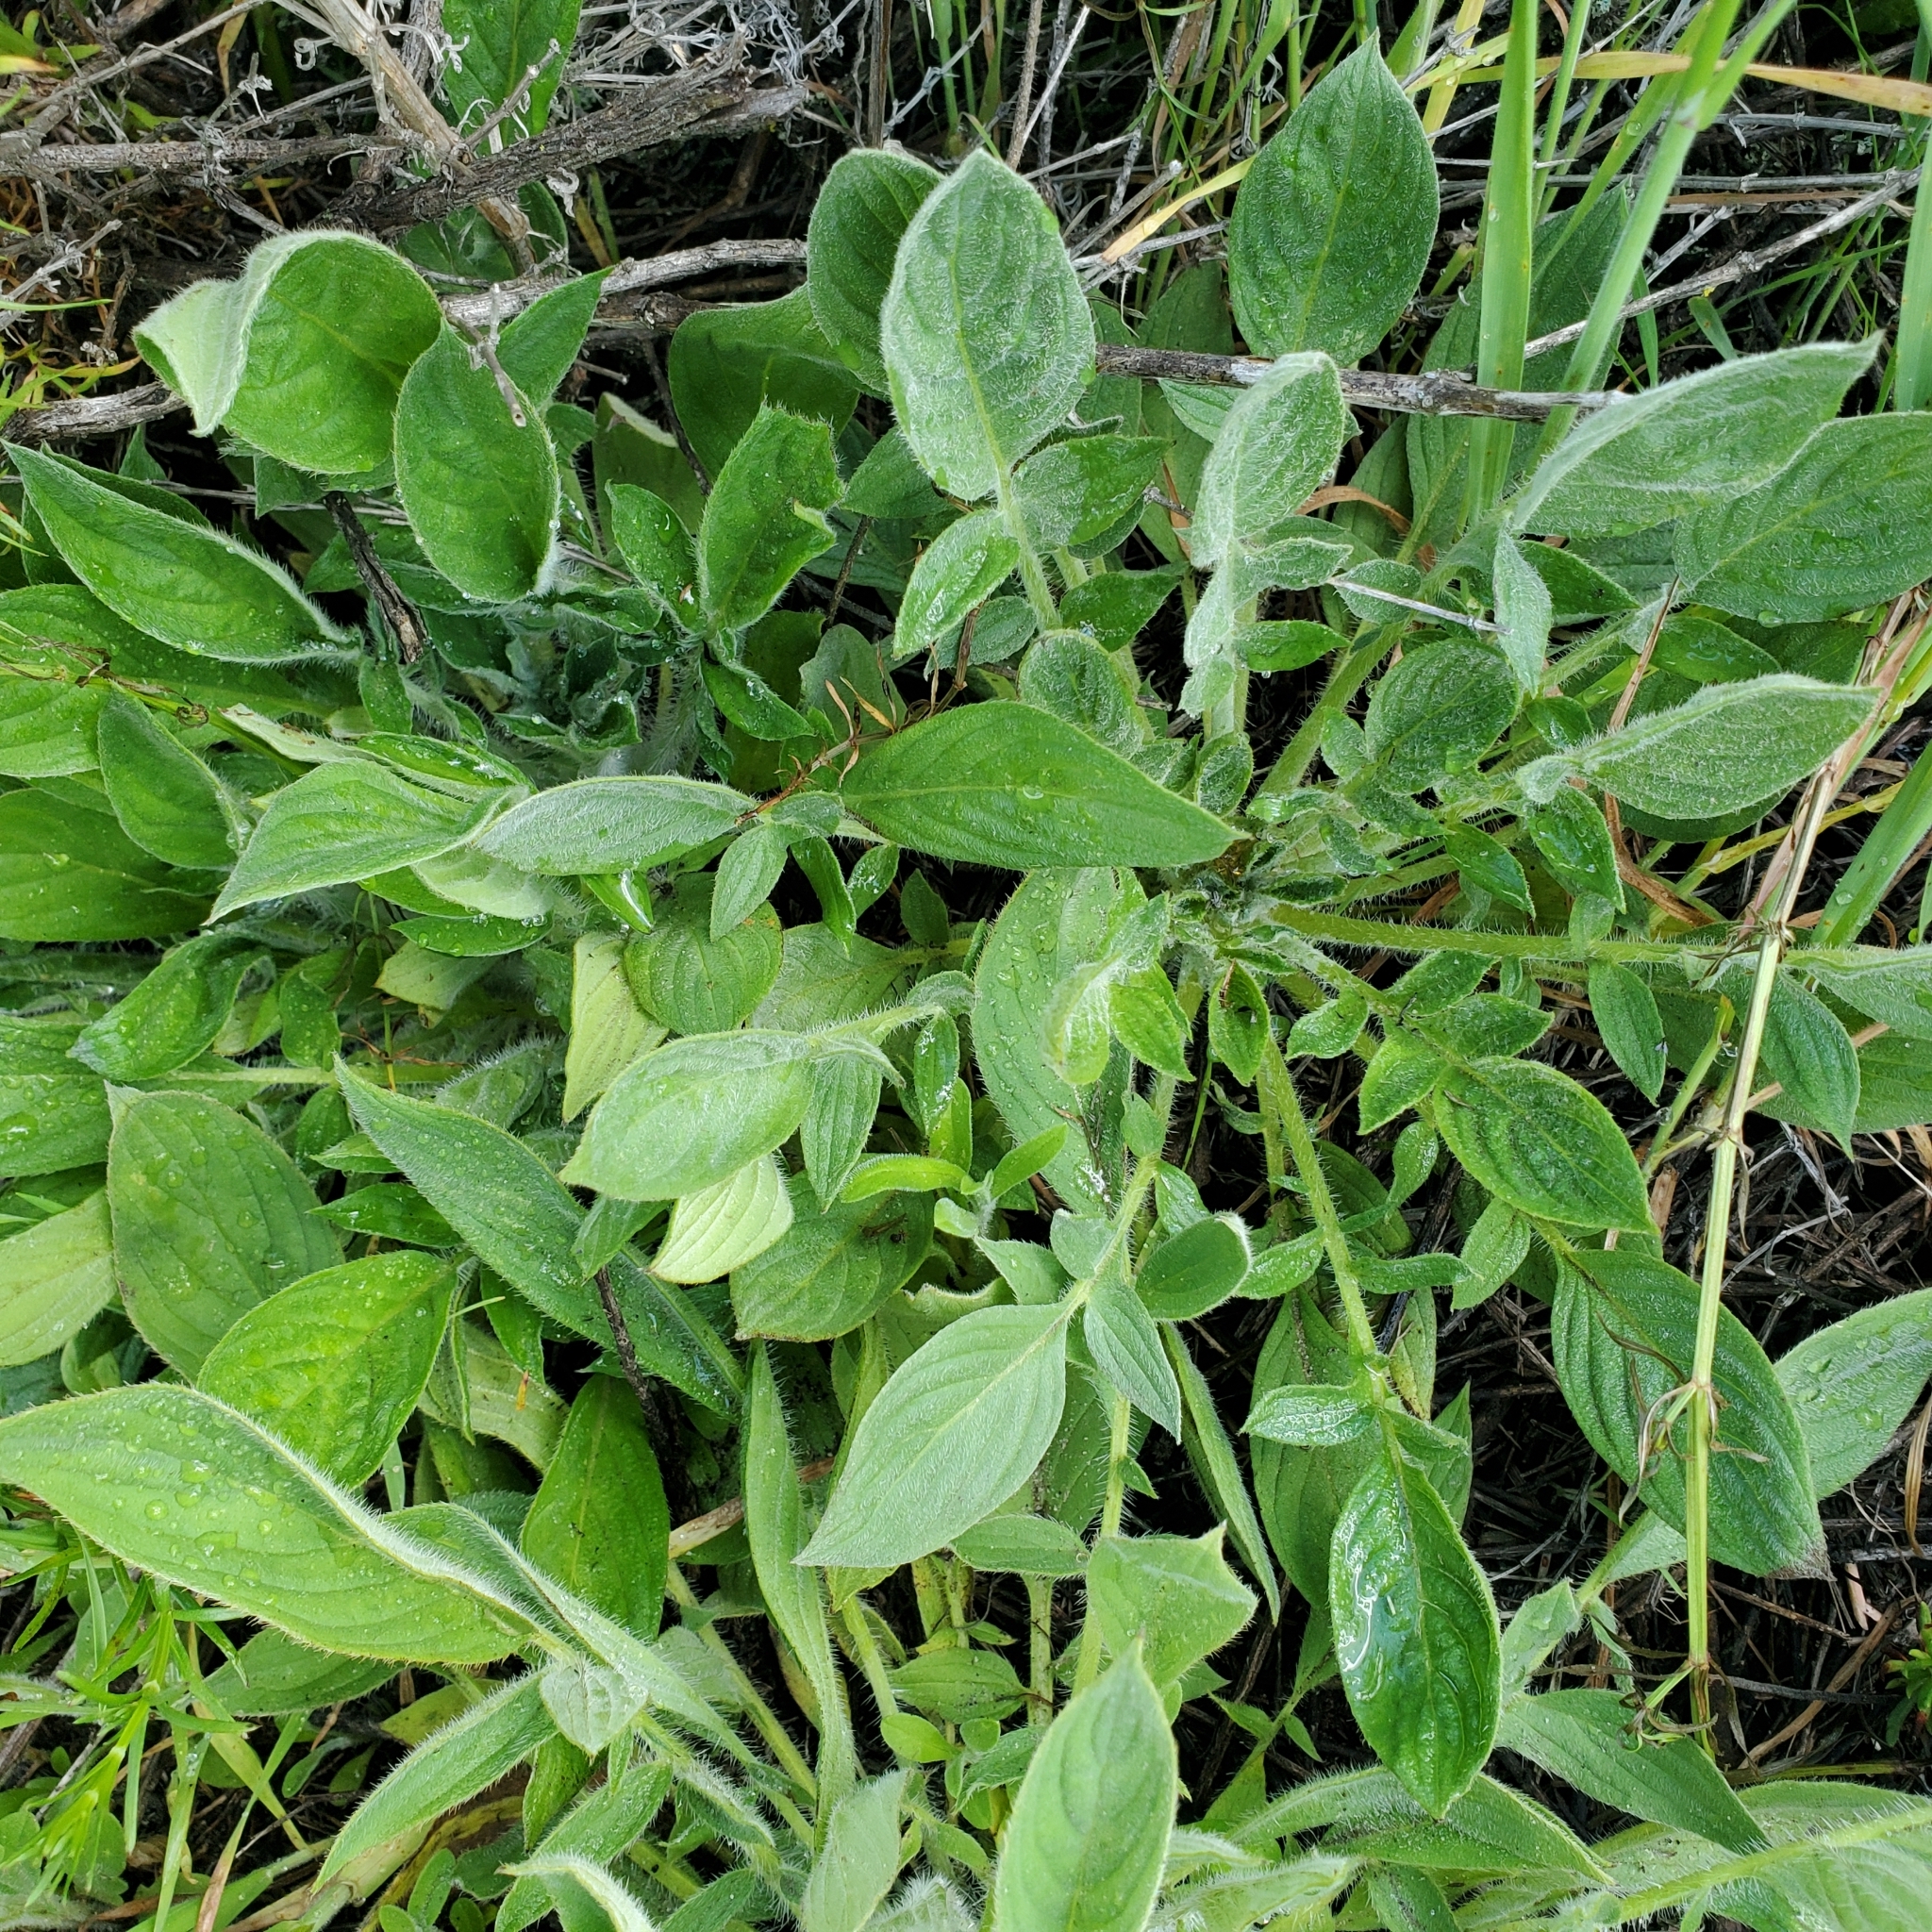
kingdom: Plantae
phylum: Tracheophyta
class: Magnoliopsida
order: Boraginales
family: Hydrophyllaceae
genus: Phacelia
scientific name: Phacelia imbricata
